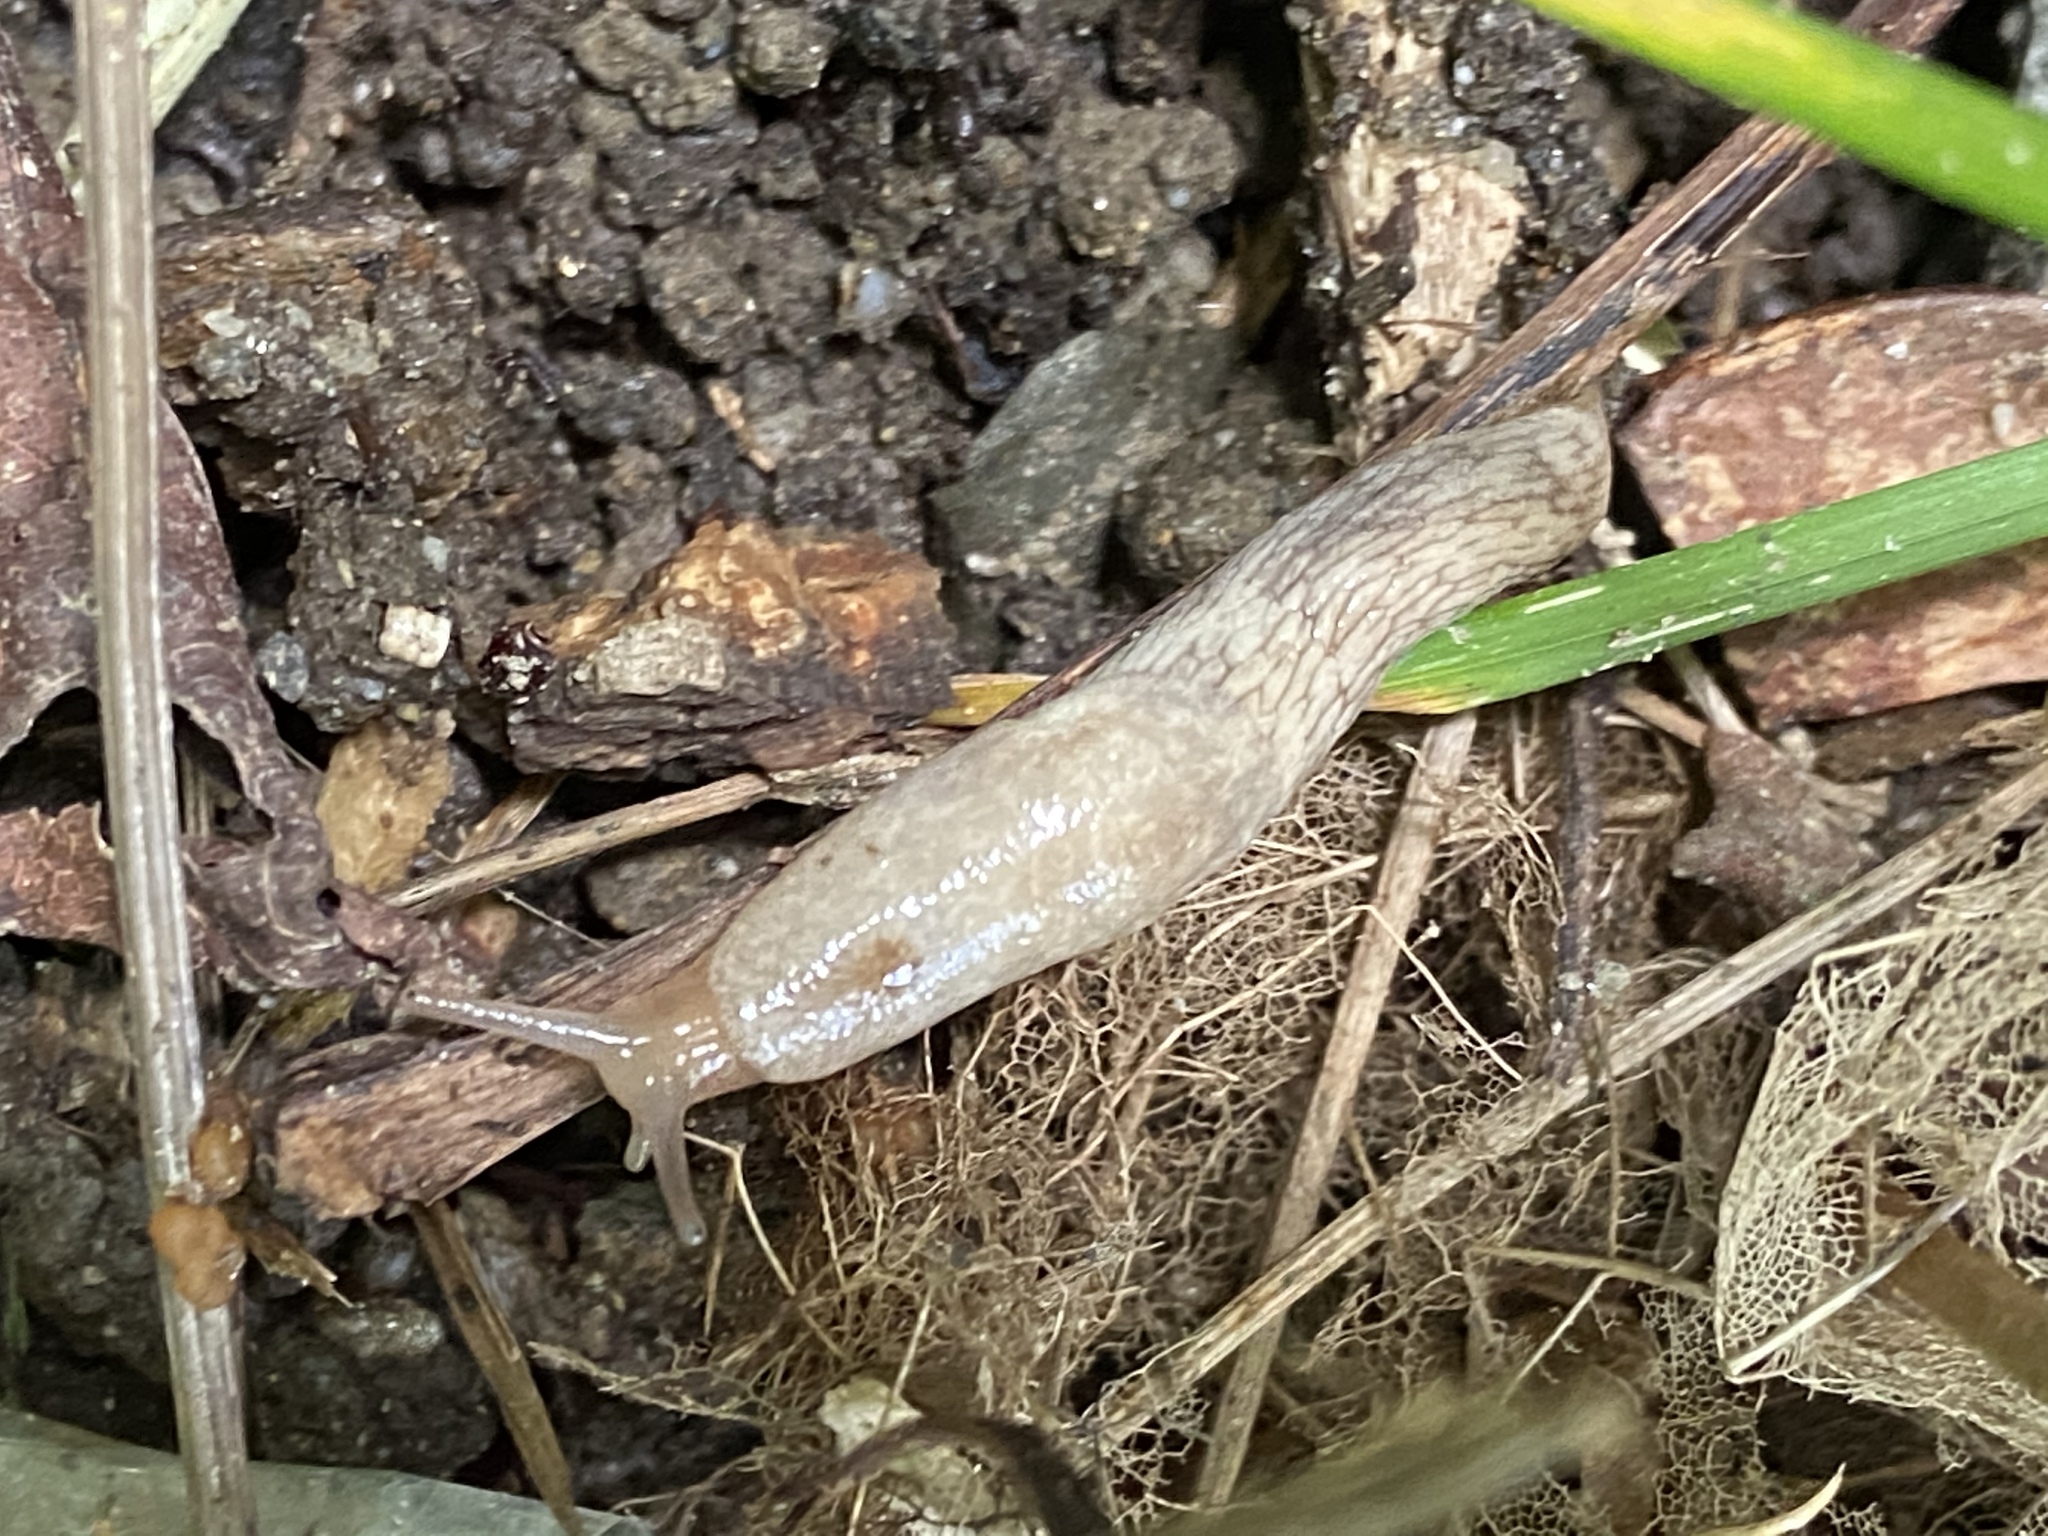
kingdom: Animalia
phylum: Mollusca
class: Gastropoda
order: Stylommatophora
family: Agriolimacidae
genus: Deroceras
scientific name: Deroceras reticulatum
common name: Gray field slug
